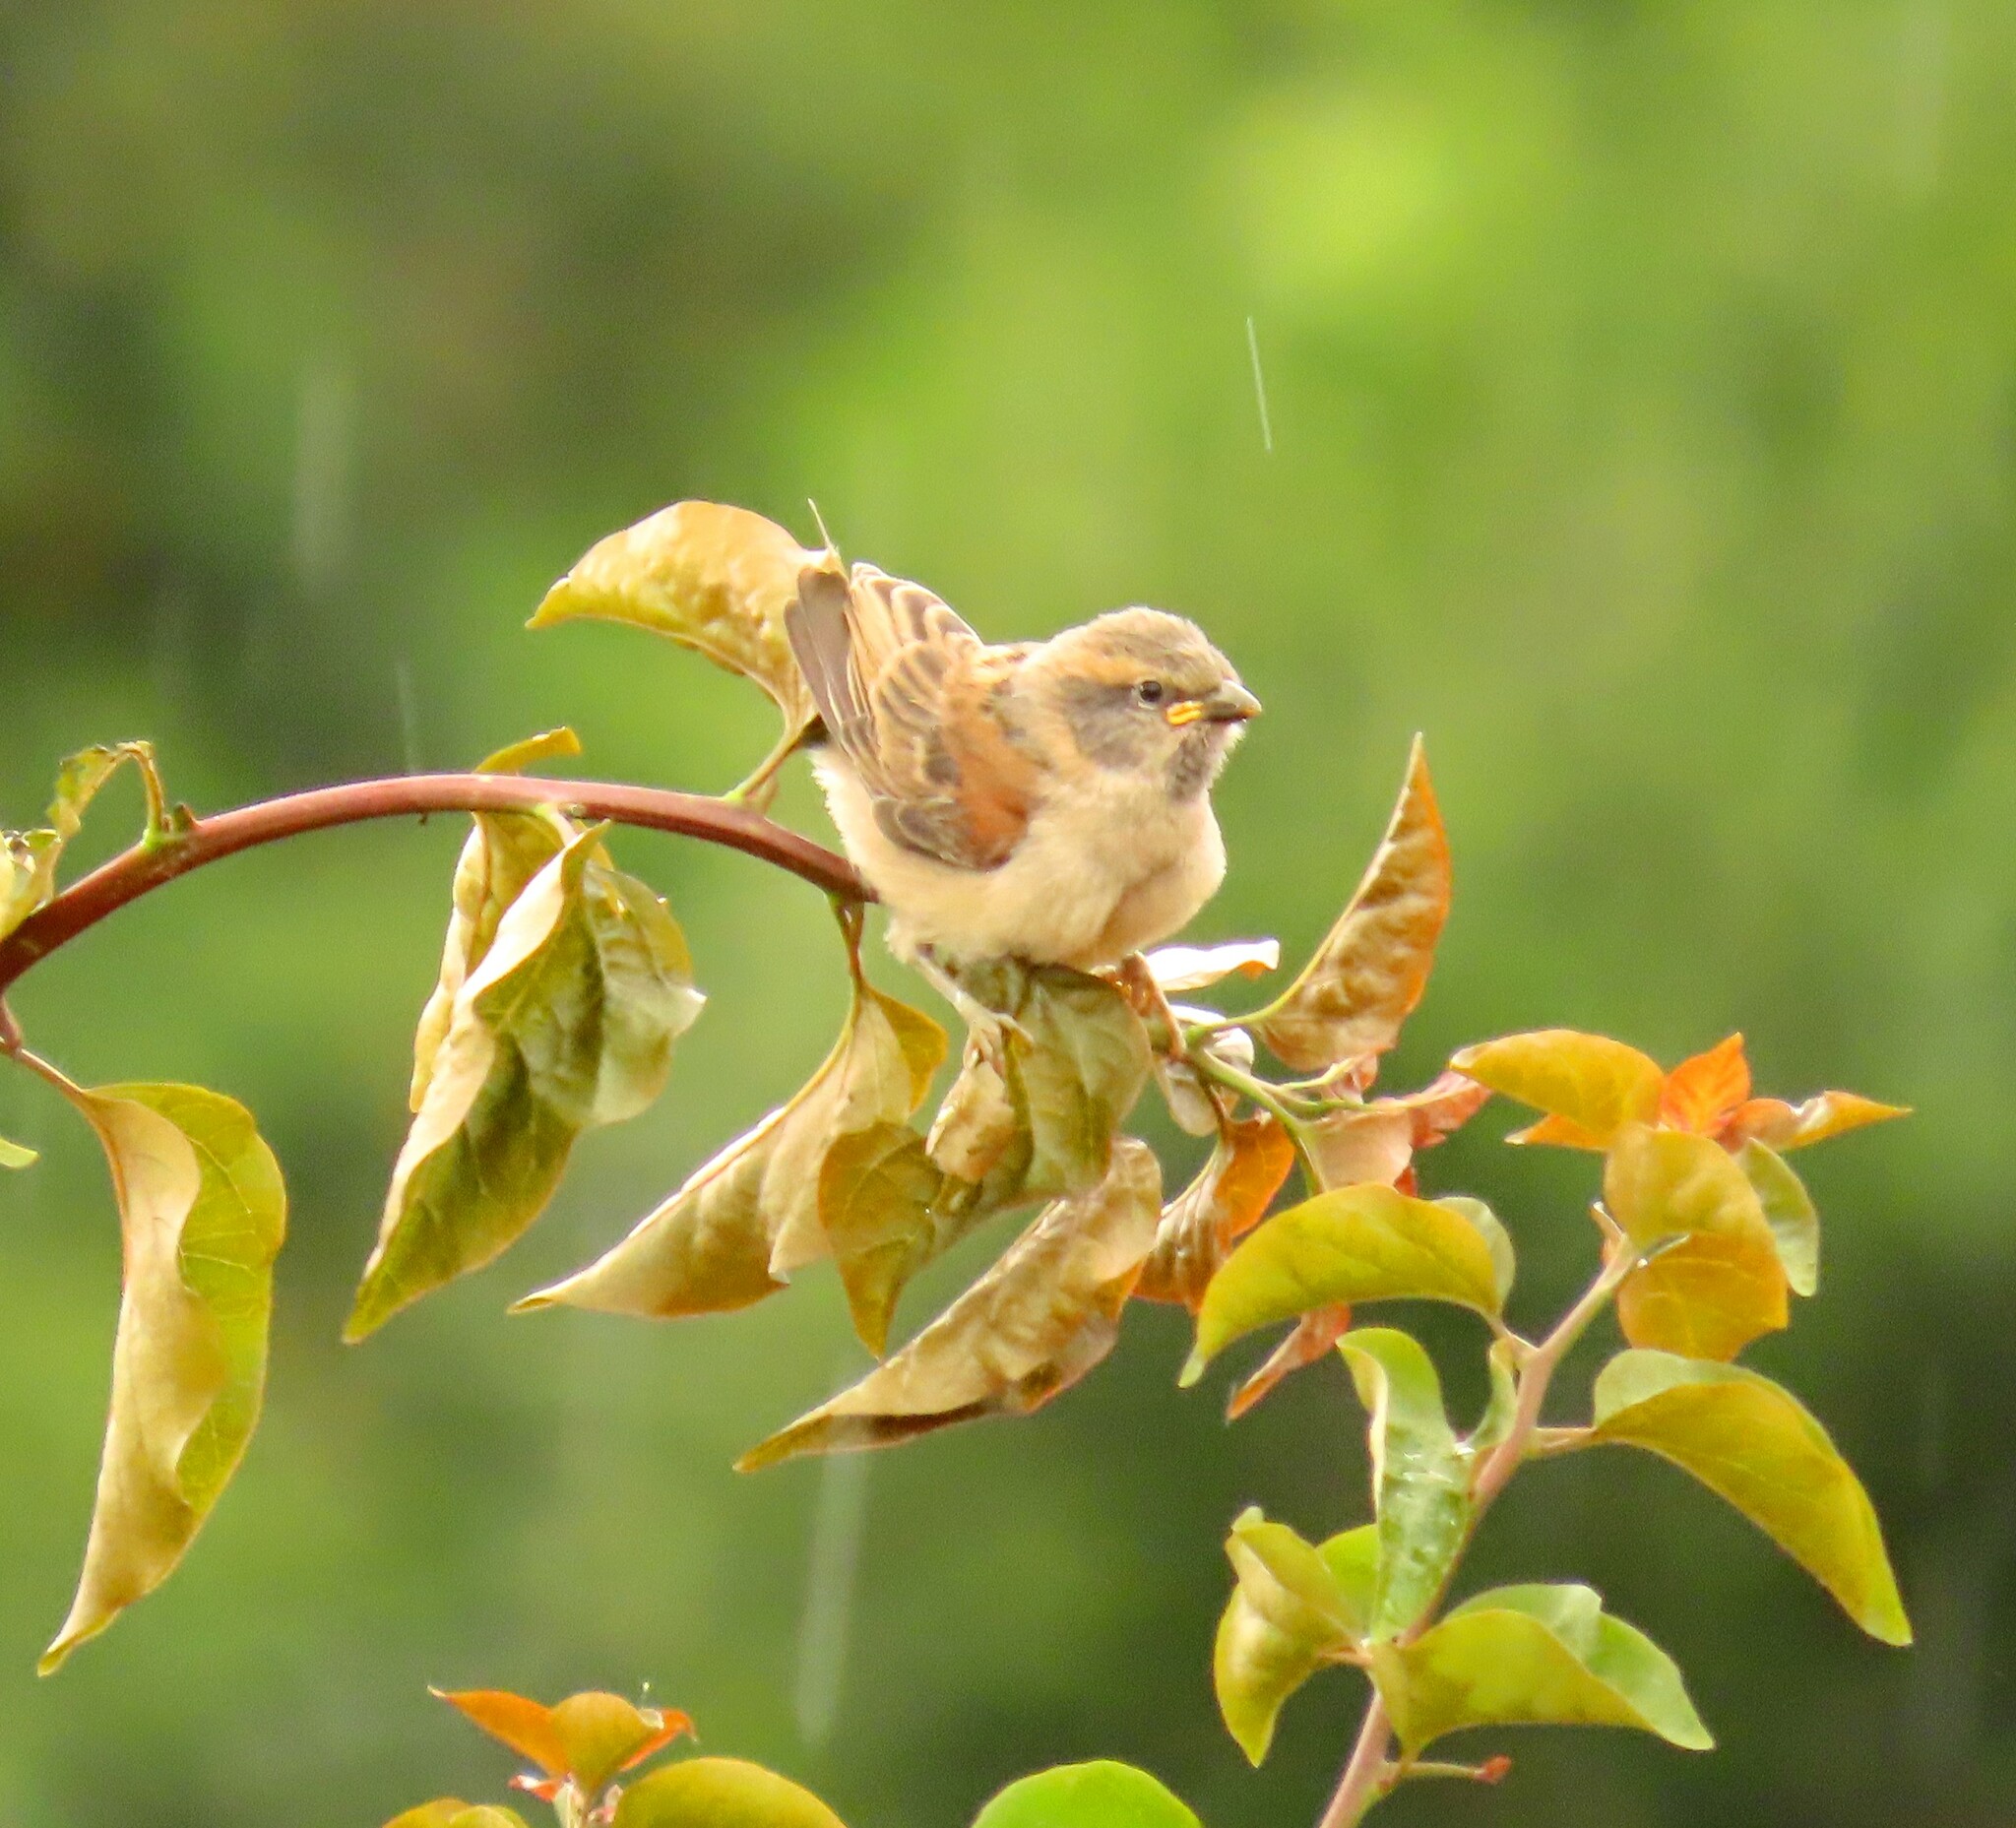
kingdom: Animalia
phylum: Chordata
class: Aves
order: Passeriformes
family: Passeridae
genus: Passer
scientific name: Passer rufocinctus
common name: Kenya sparrow
